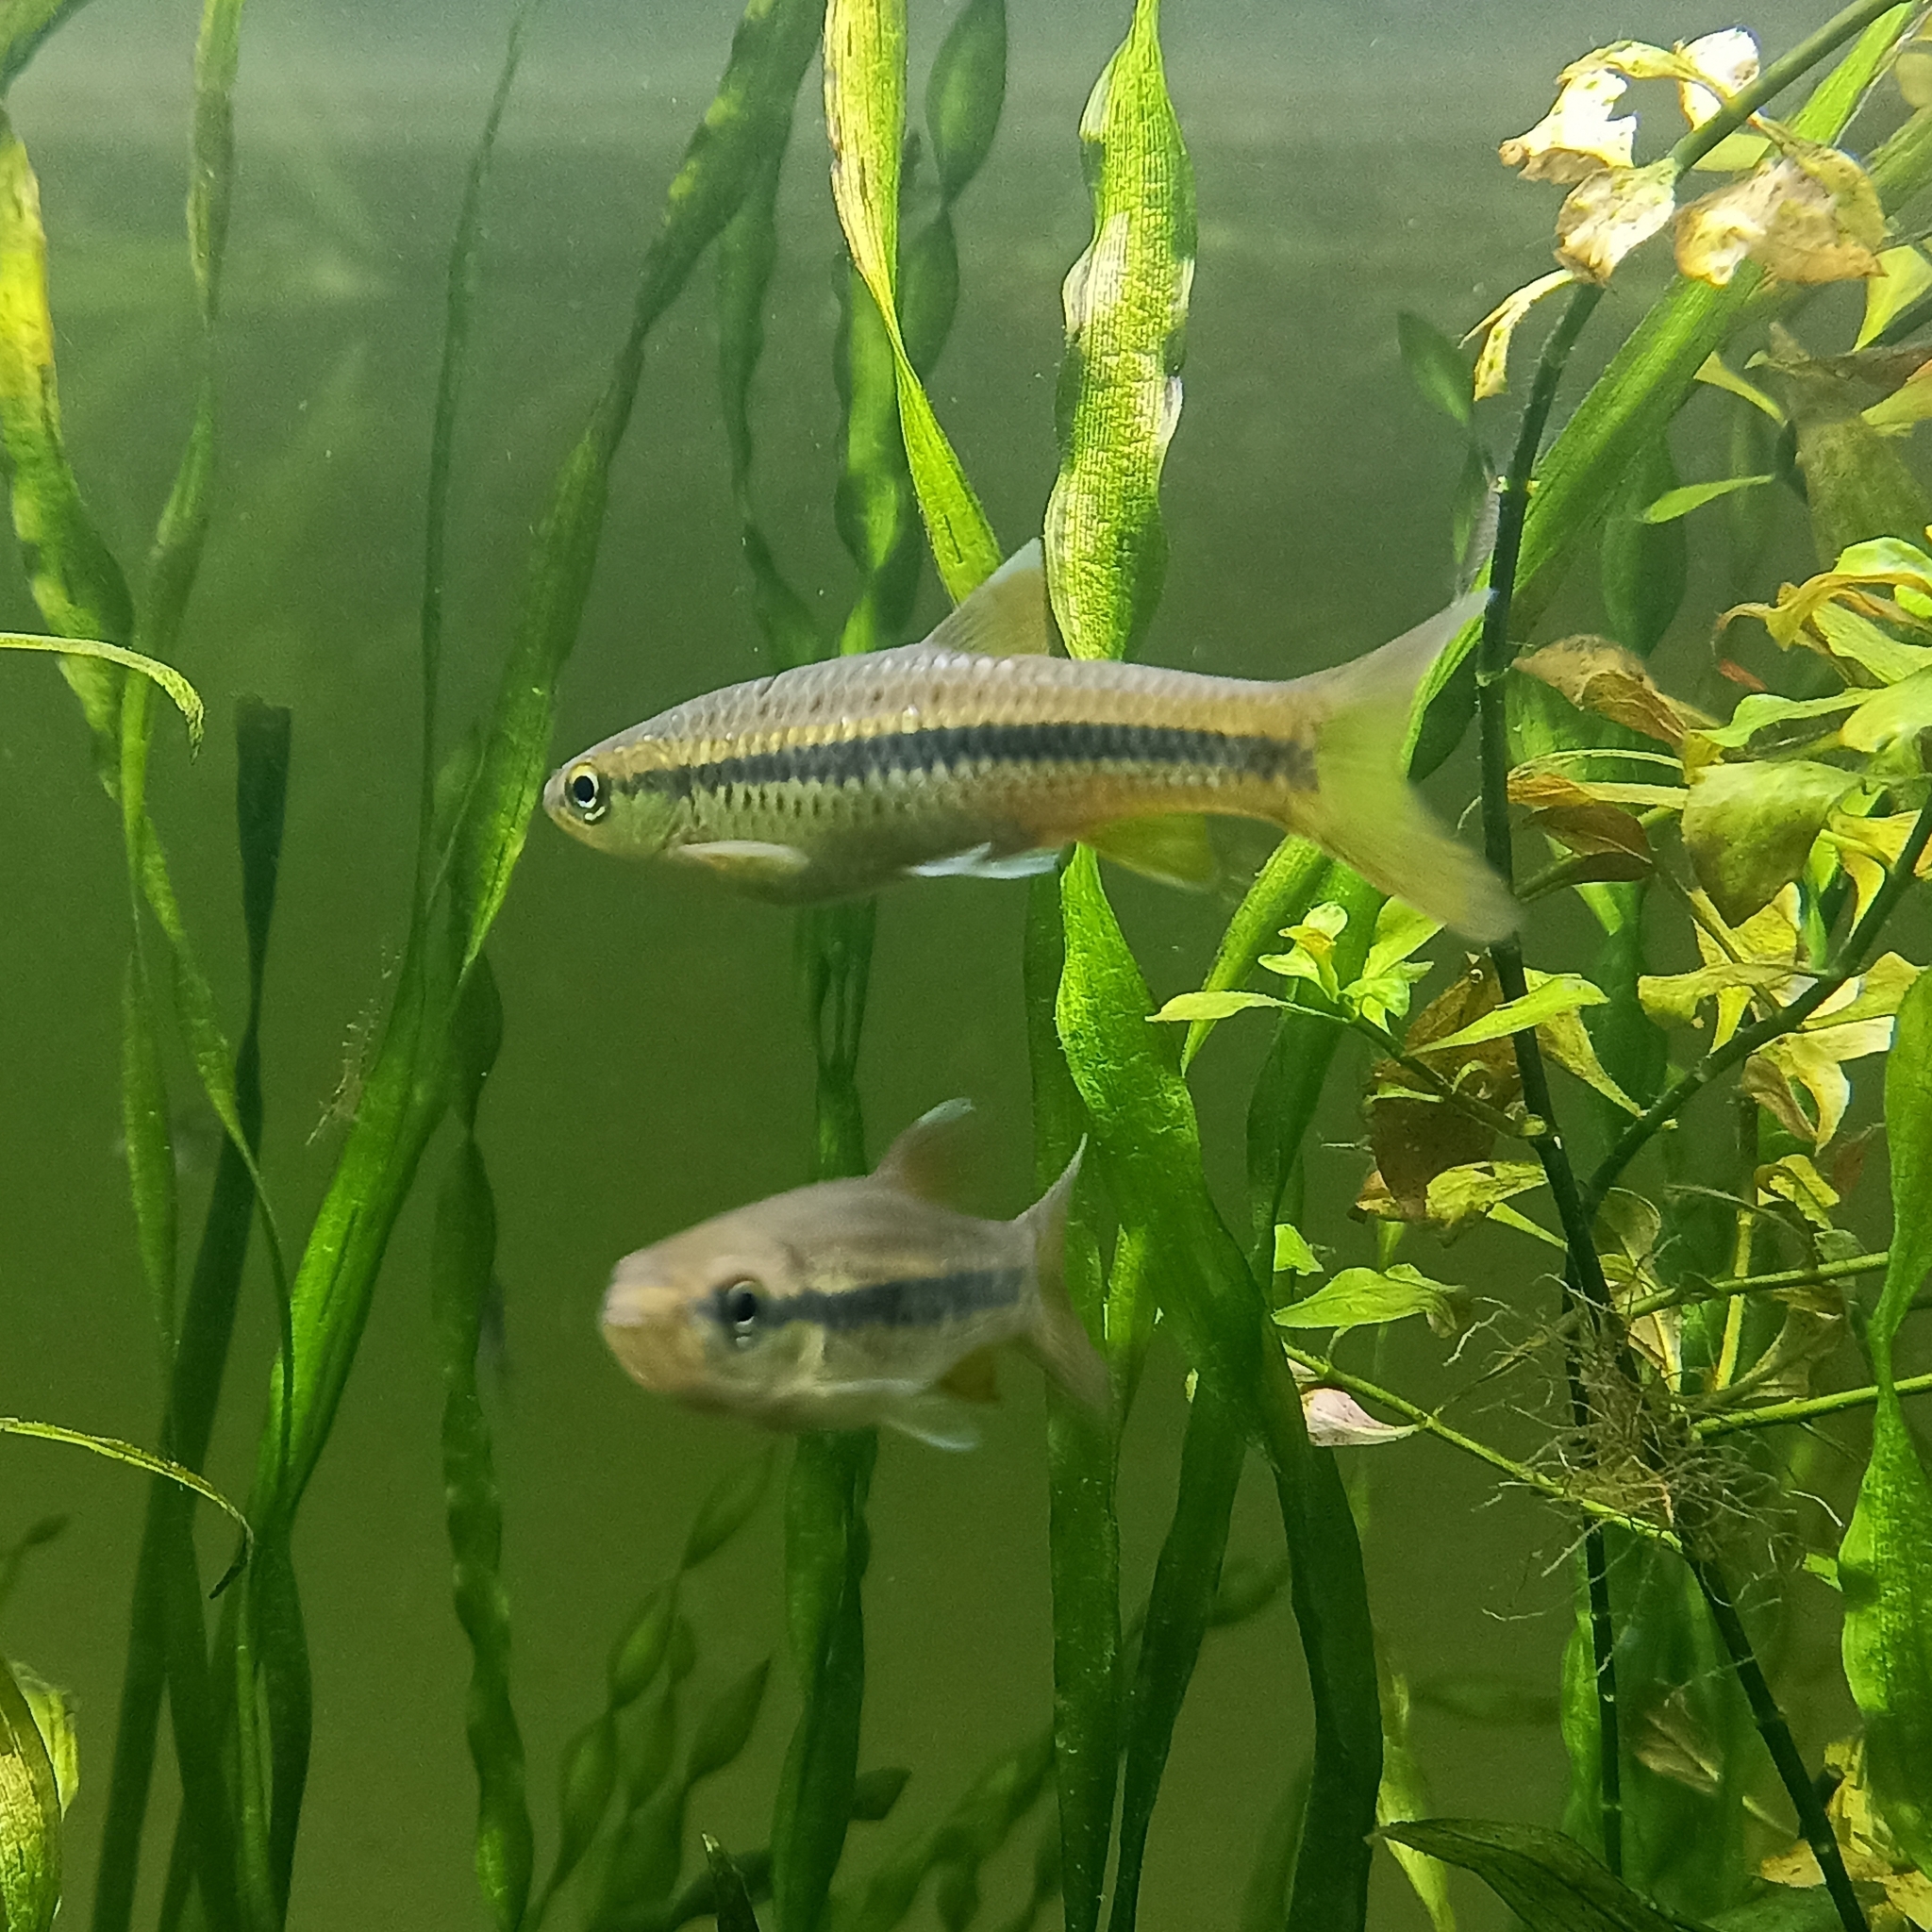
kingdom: Animalia
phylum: Chordata
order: Cypriniformes
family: Cyprinidae
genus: Rasbora
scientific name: Rasbora dandia
